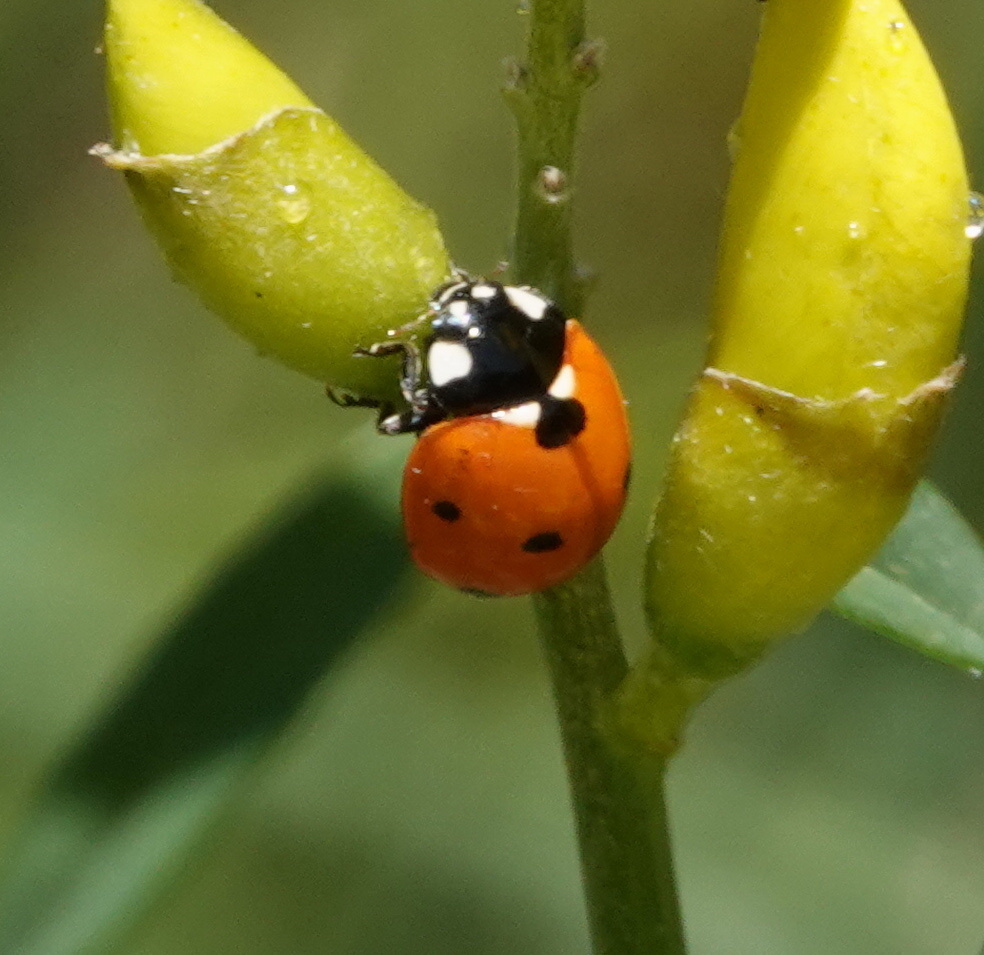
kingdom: Animalia
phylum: Arthropoda
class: Insecta
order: Coleoptera
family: Coccinellidae
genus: Coccinella
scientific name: Coccinella septempunctata
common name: Sevenspotted lady beetle
